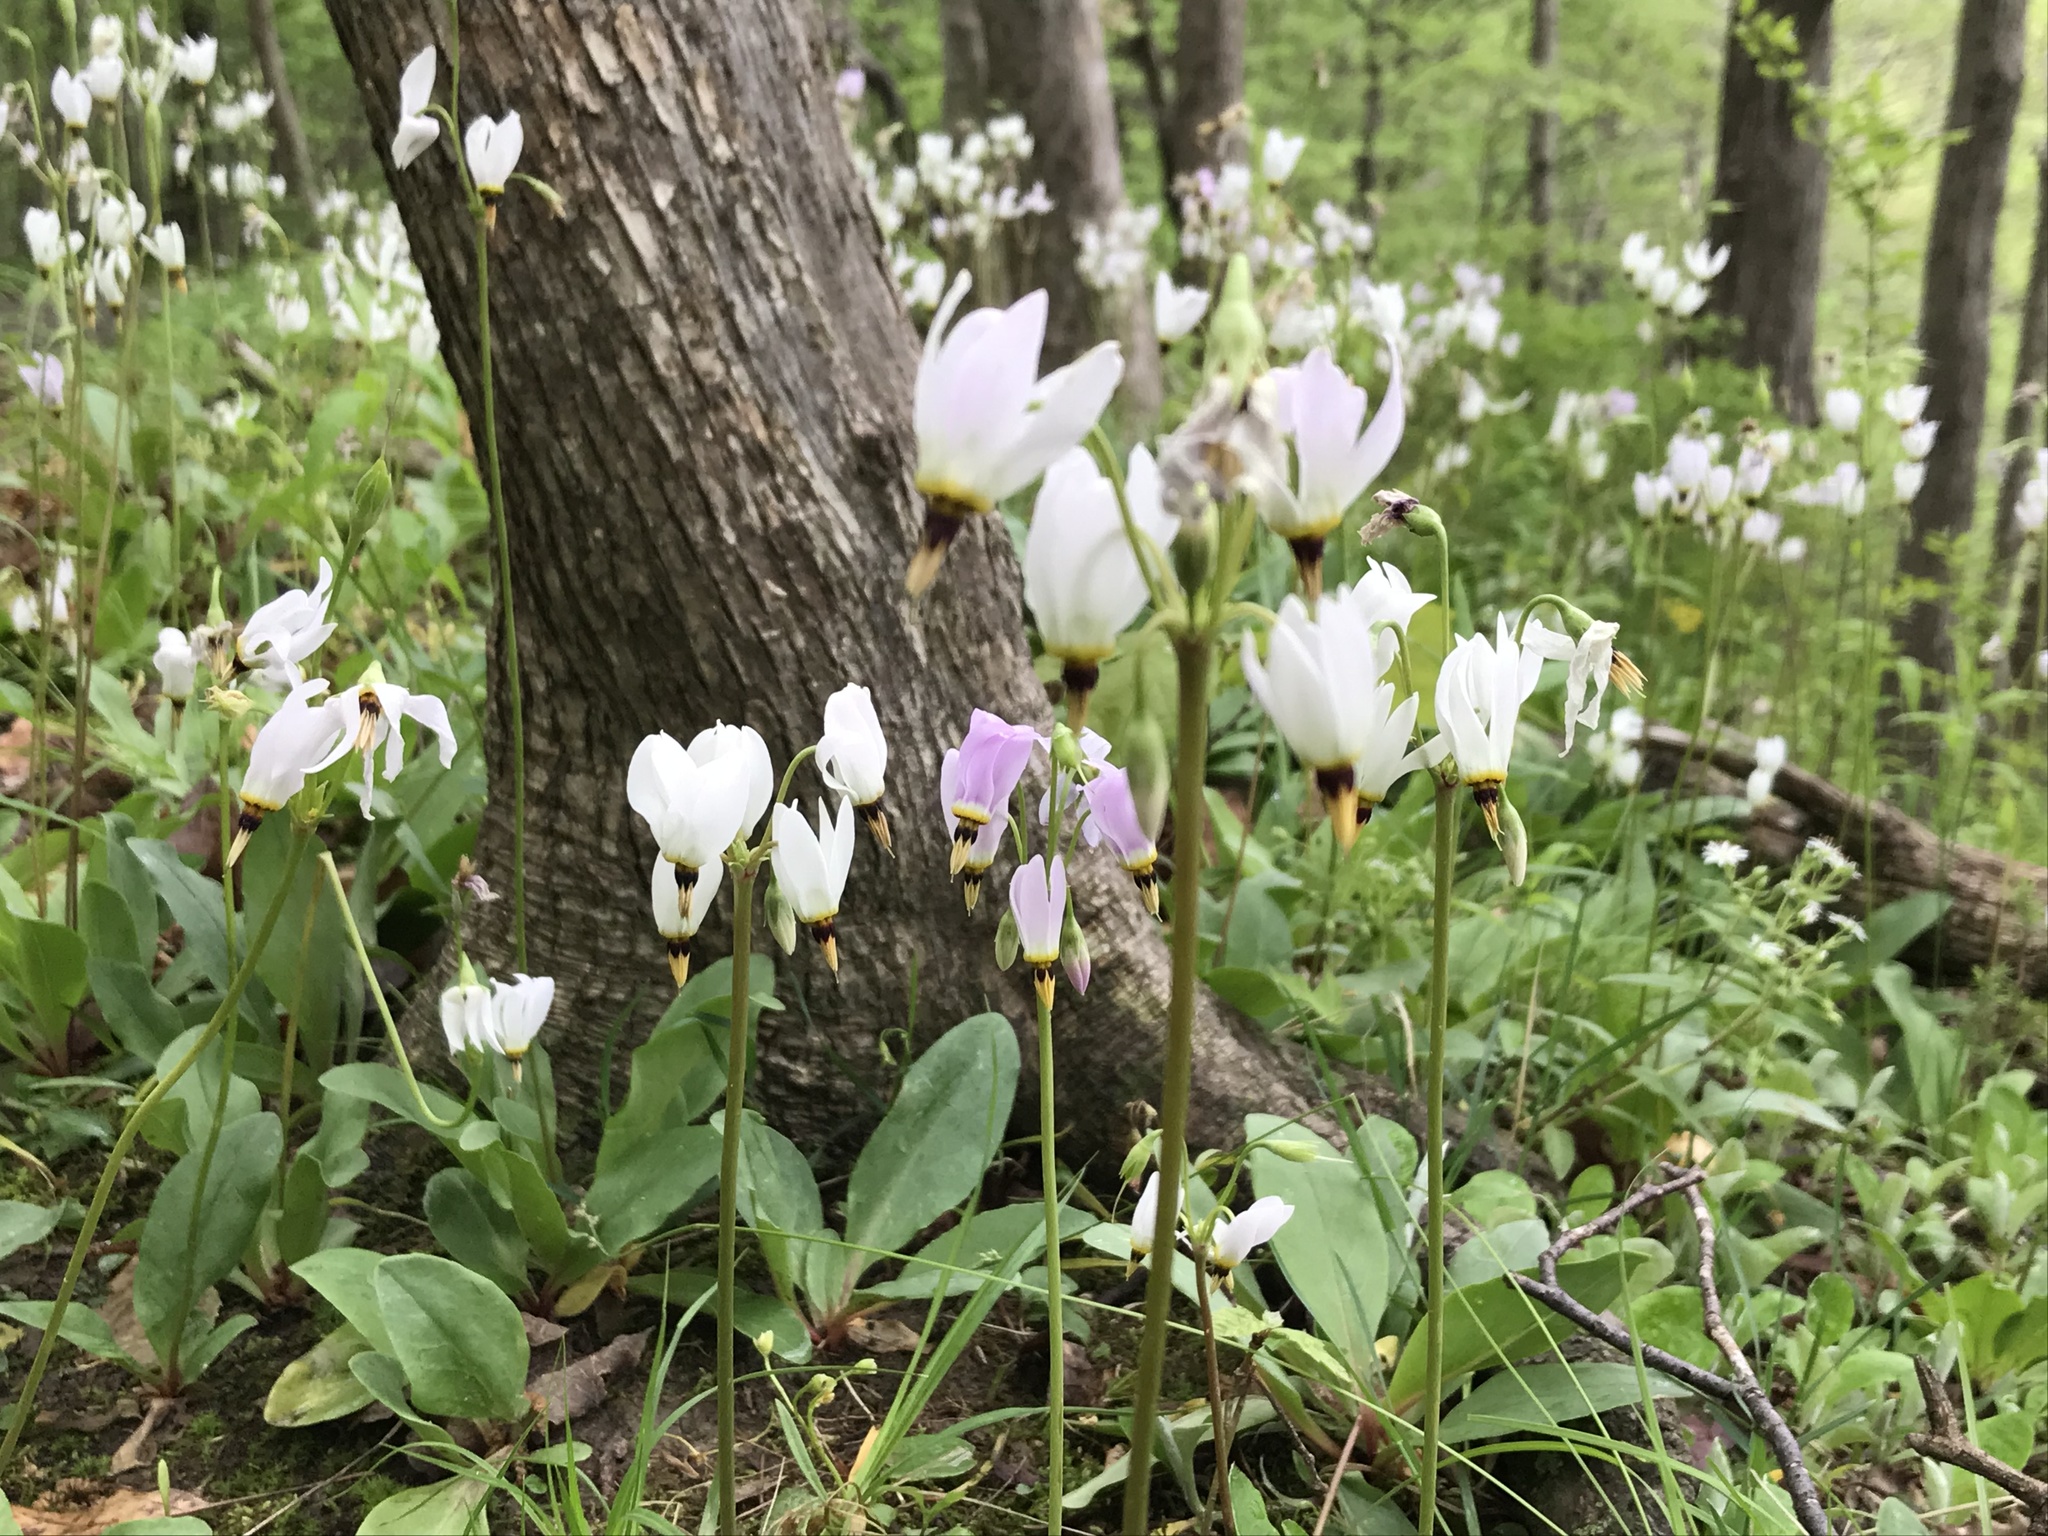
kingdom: Plantae
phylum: Tracheophyta
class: Magnoliopsida
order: Ericales
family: Primulaceae
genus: Dodecatheon
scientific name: Dodecatheon meadia
